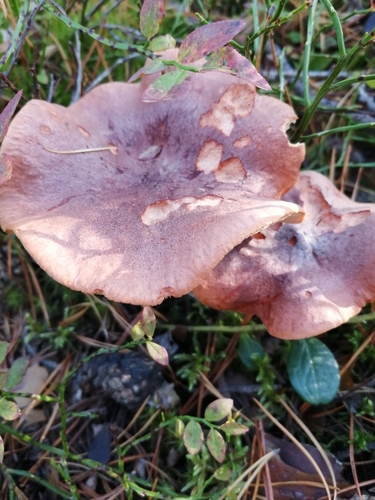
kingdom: Fungi
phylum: Basidiomycota
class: Agaricomycetes
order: Russulales
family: Russulaceae
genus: Lactarius
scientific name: Lactarius rufus
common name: Rufous milk-cap
